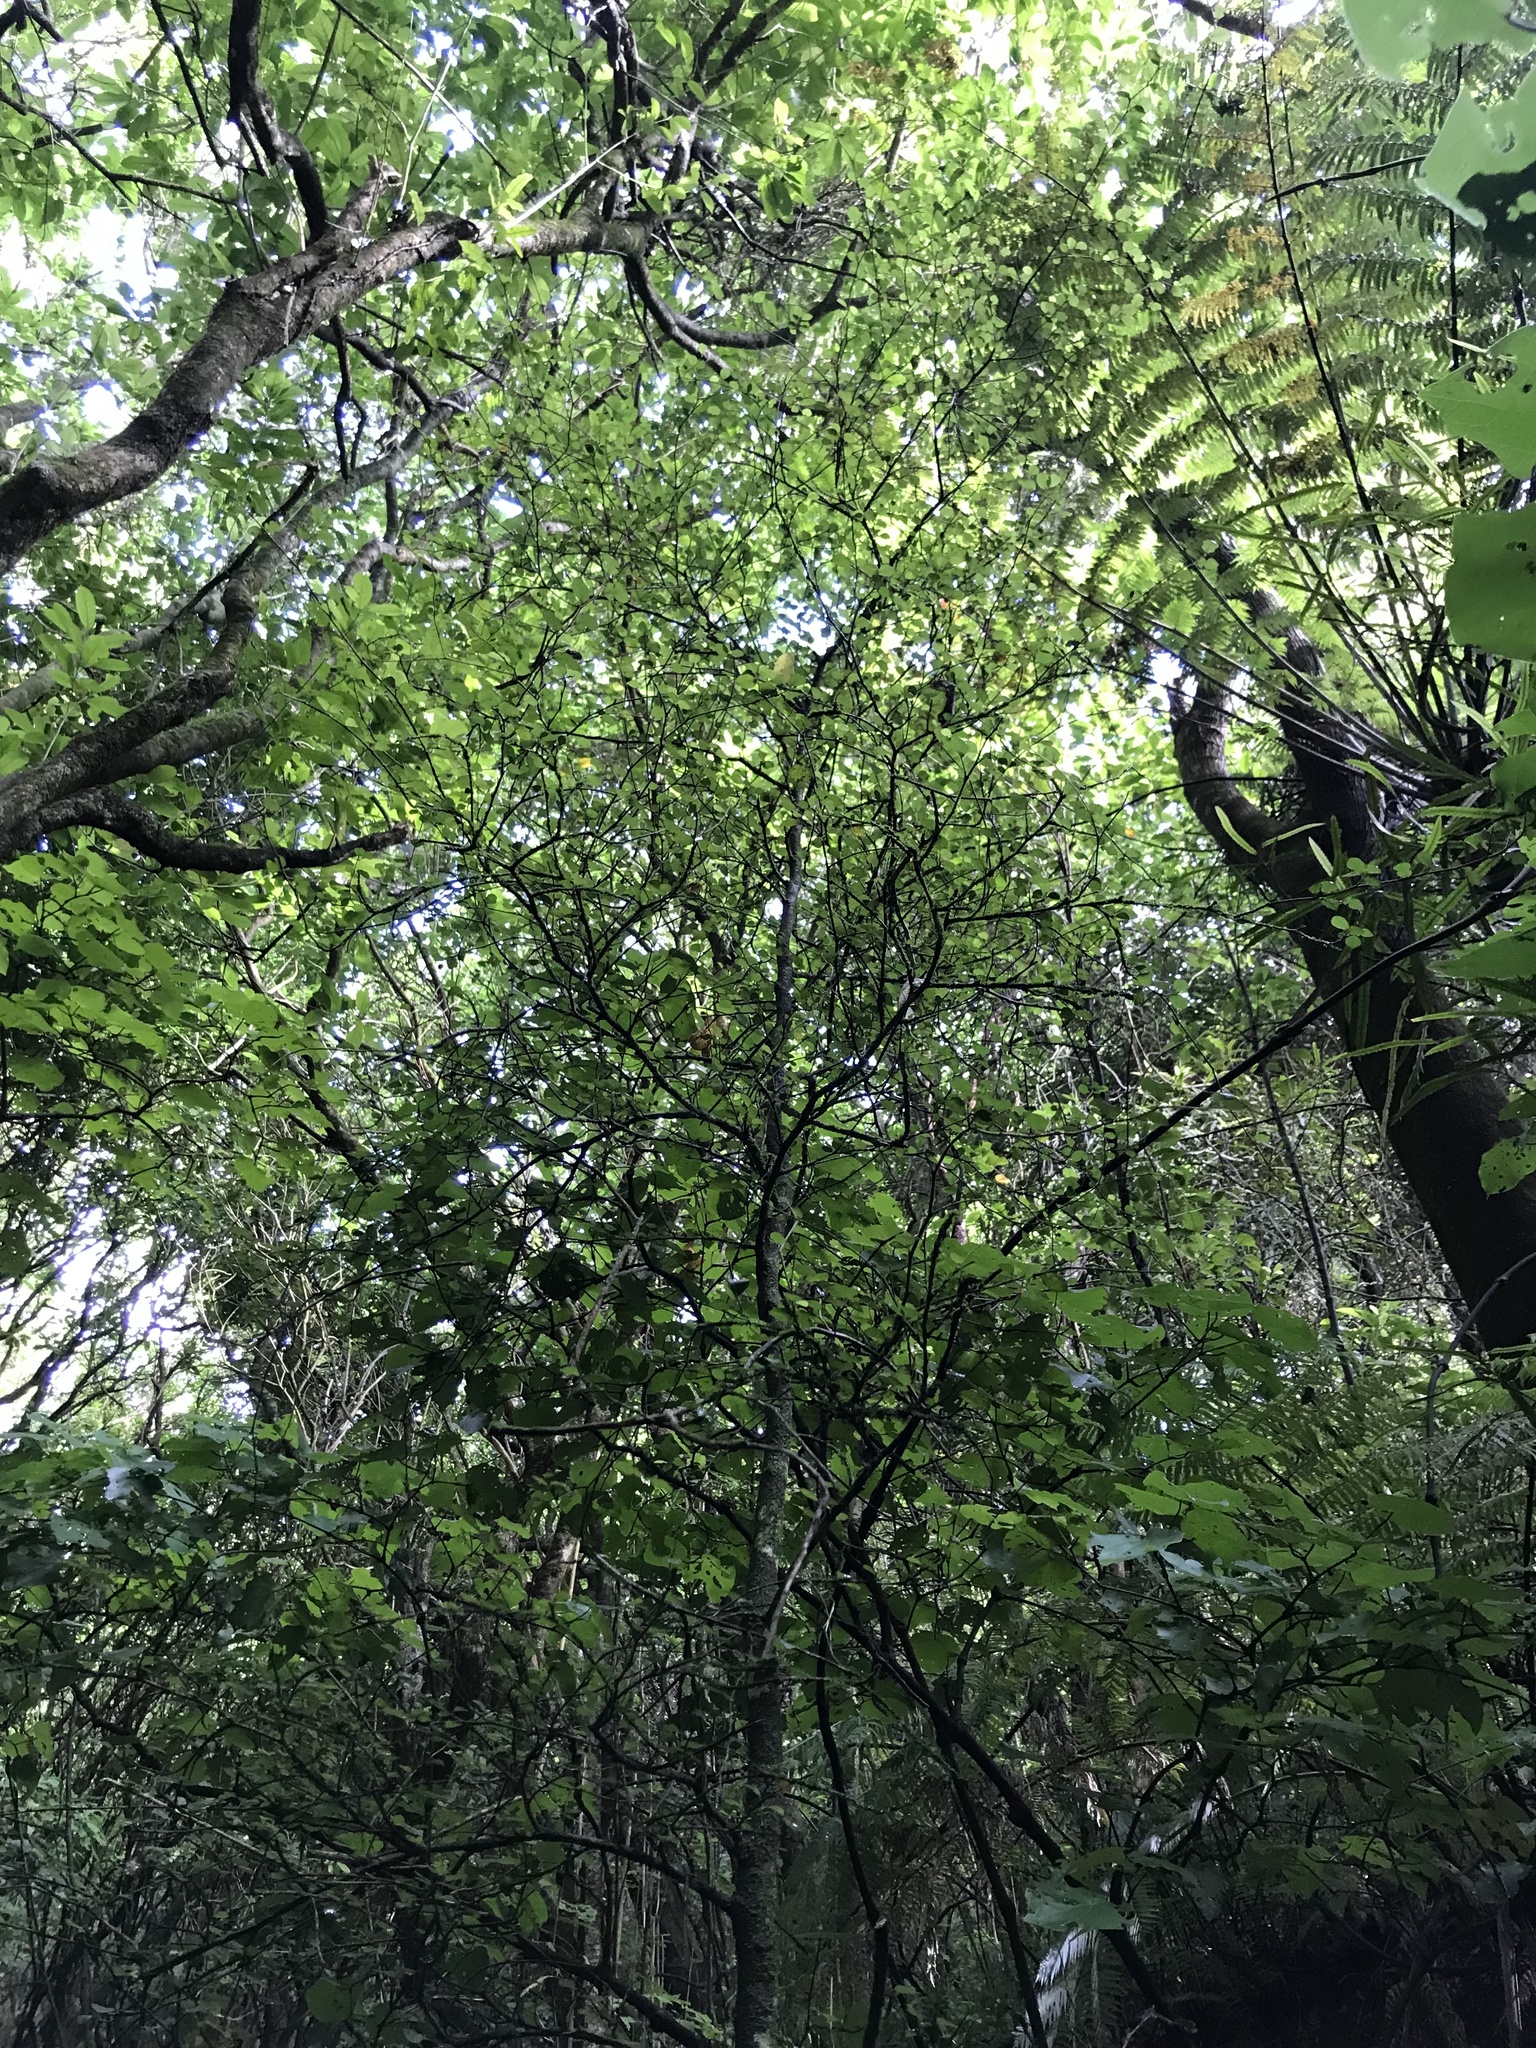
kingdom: Plantae
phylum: Tracheophyta
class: Magnoliopsida
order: Rosales
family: Moraceae
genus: Paratrophis
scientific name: Paratrophis microphylla
